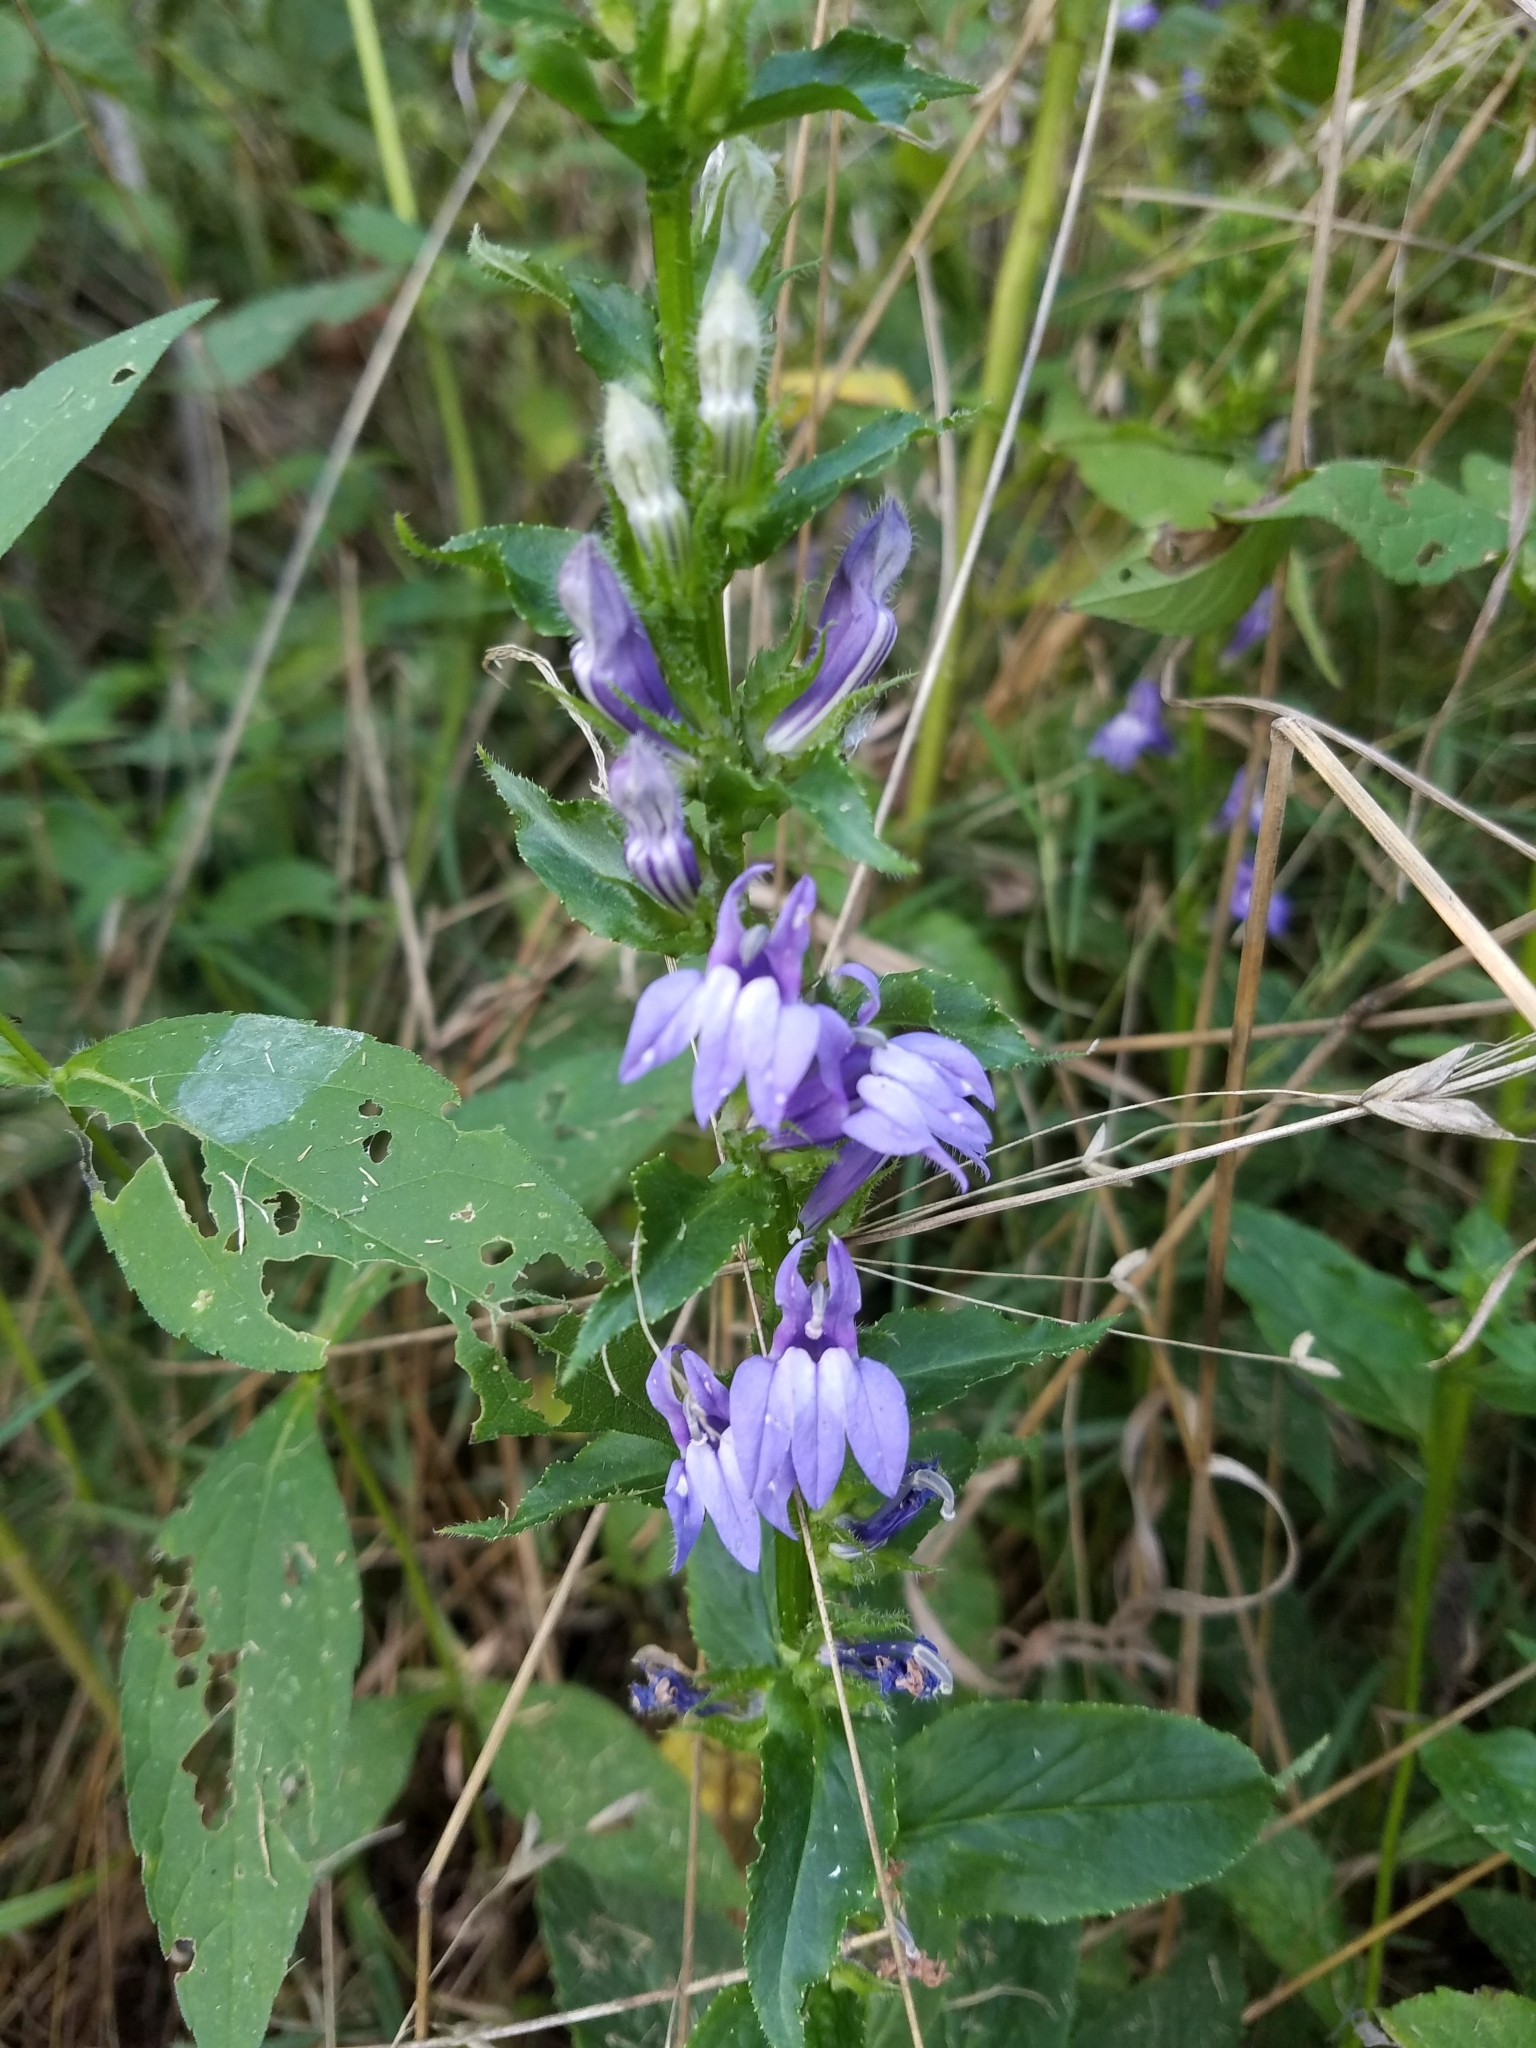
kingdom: Plantae
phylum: Tracheophyta
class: Magnoliopsida
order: Asterales
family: Campanulaceae
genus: Lobelia
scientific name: Lobelia siphilitica
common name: Great lobelia
